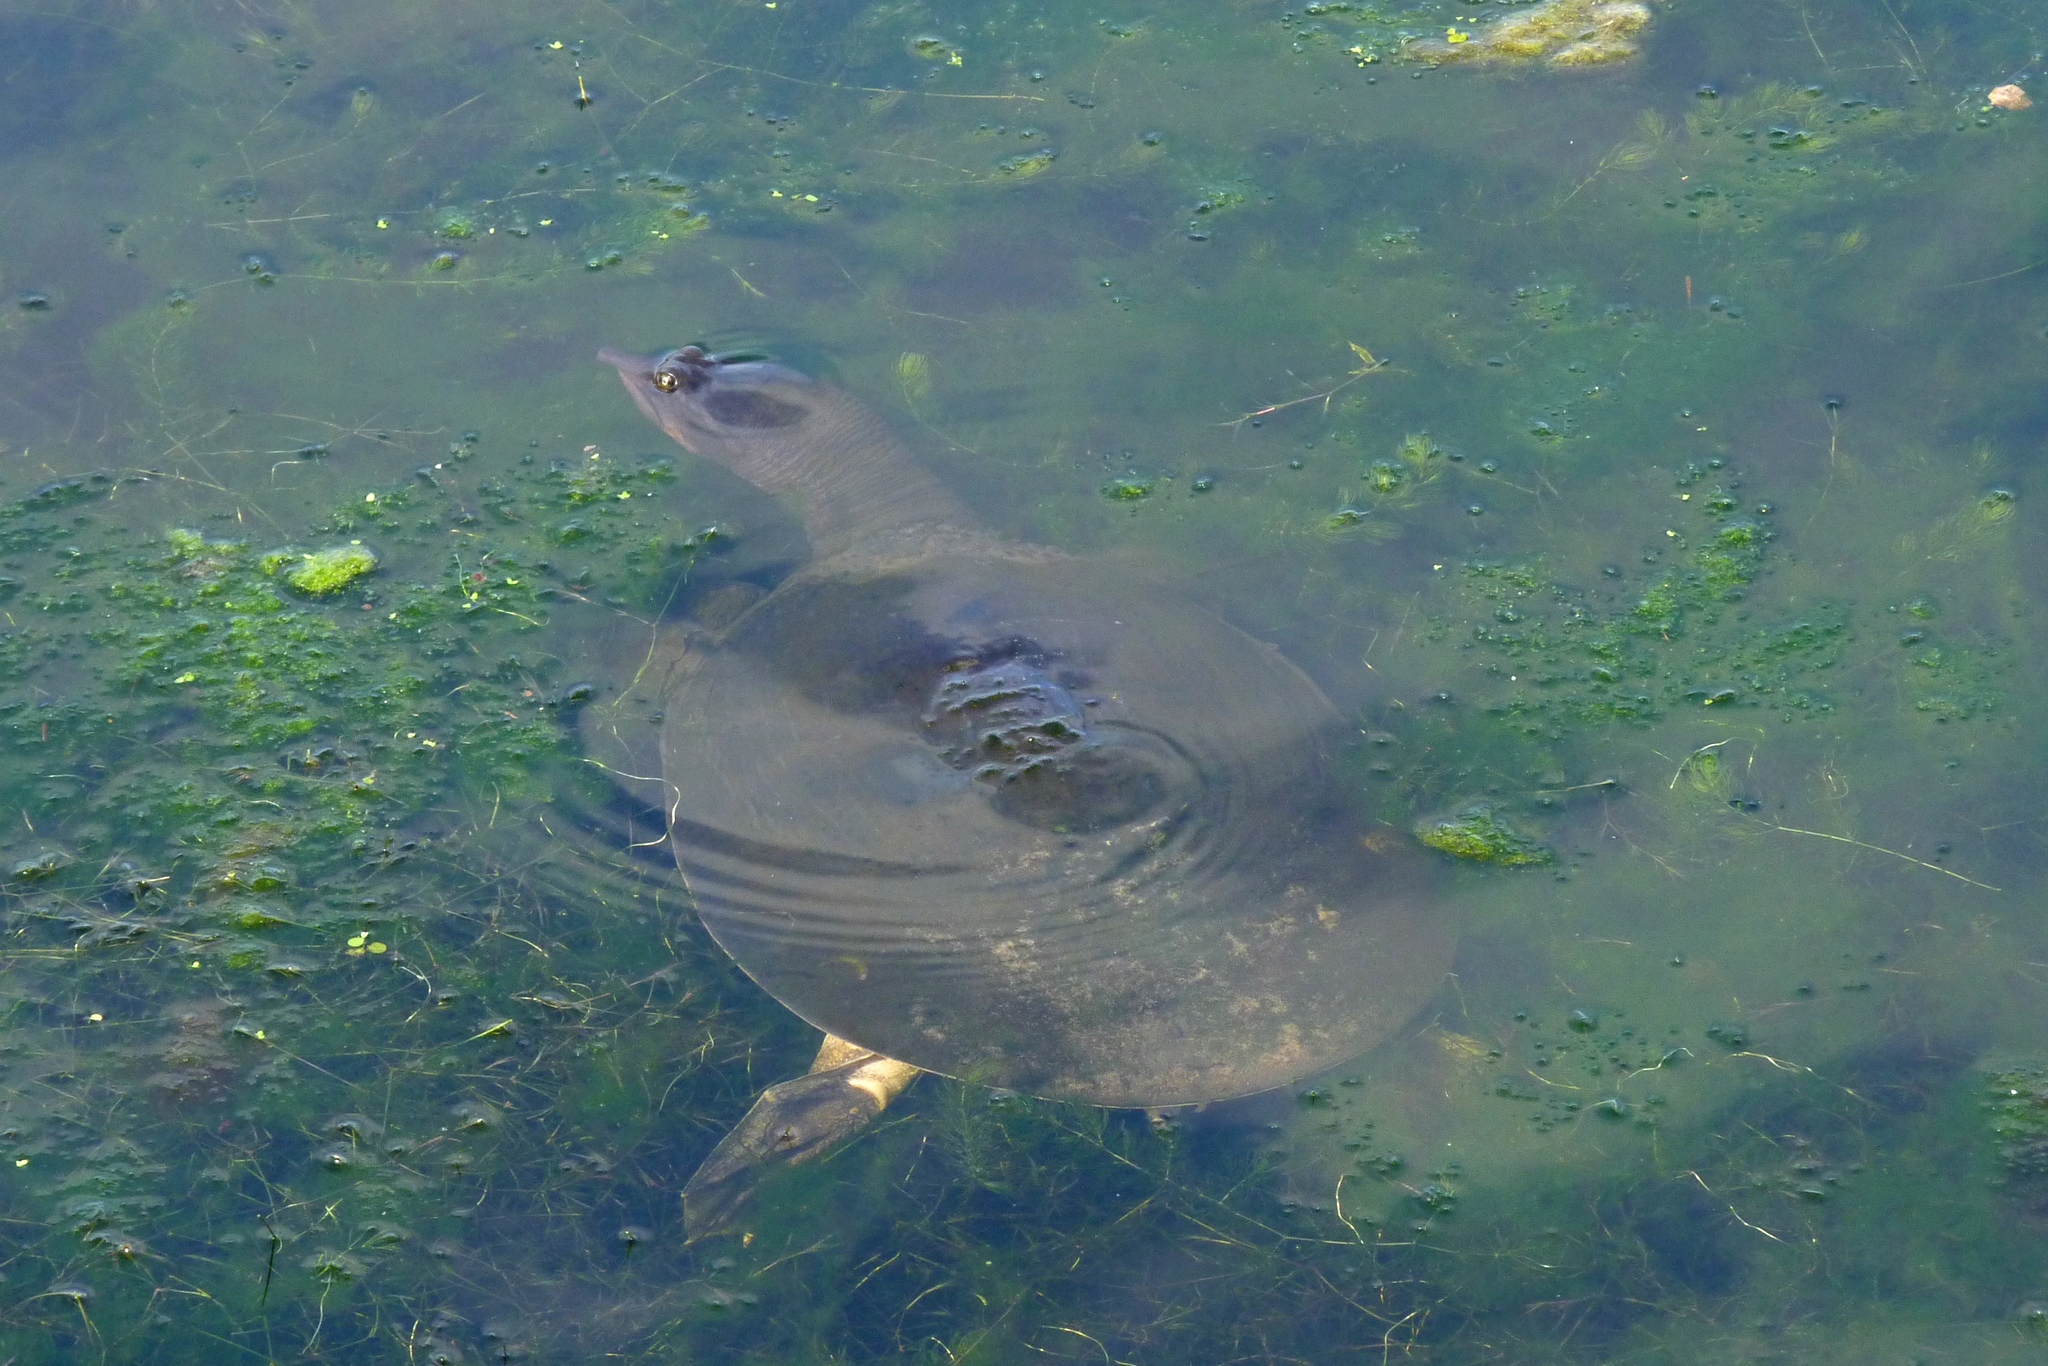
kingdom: Animalia
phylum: Chordata
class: Testudines
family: Trionychidae
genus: Apalone
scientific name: Apalone ferox
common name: Florida softshell turtle
